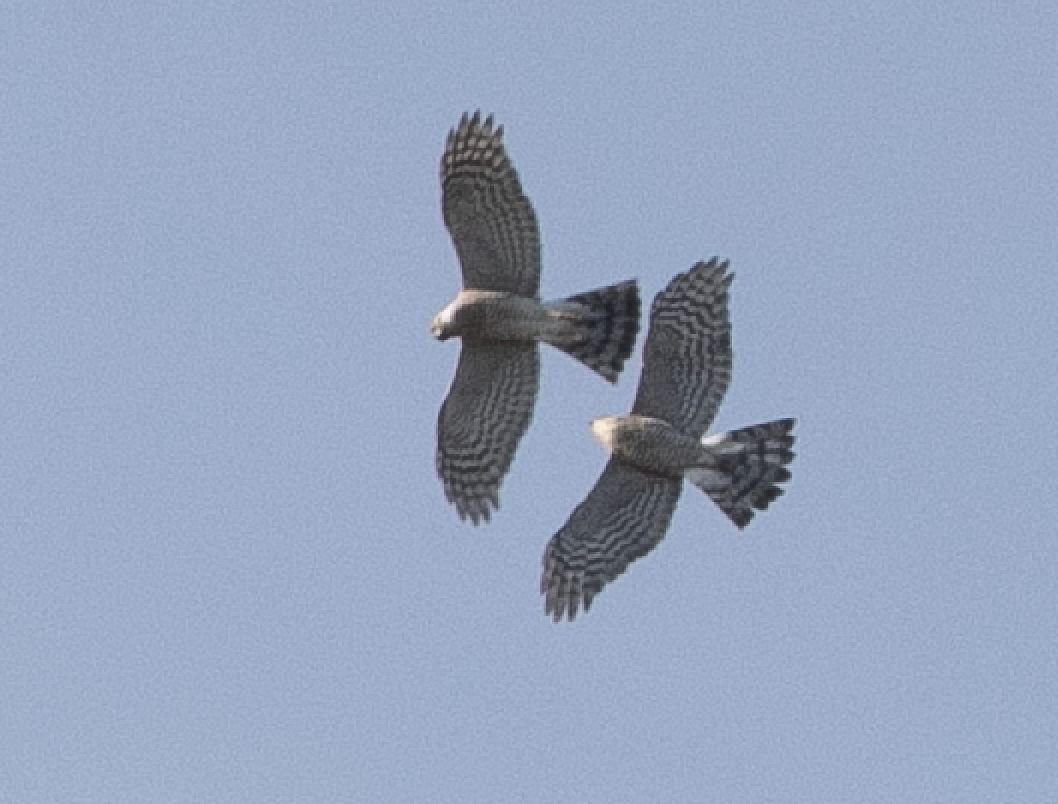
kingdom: Animalia
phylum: Chordata
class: Aves
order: Accipitriformes
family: Accipitridae
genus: Accipiter
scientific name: Accipiter nisus
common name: Eurasian sparrowhawk
